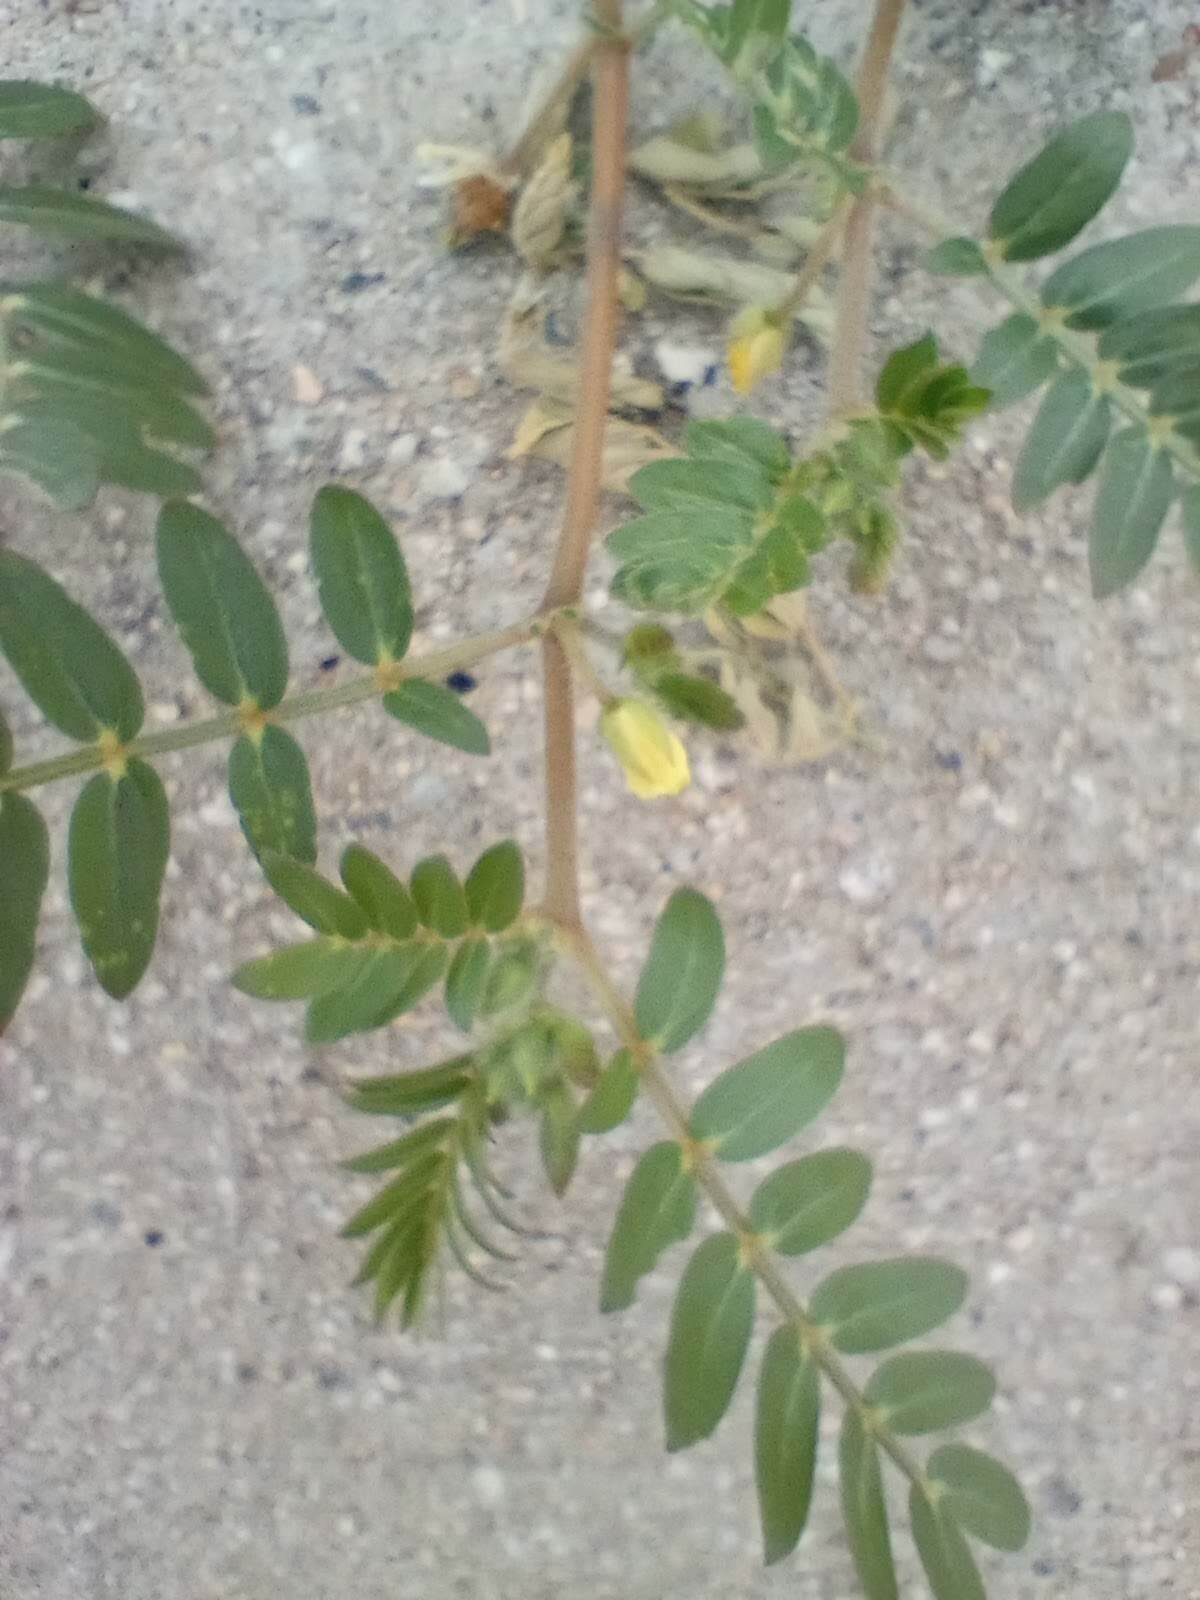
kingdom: Plantae
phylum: Tracheophyta
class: Magnoliopsida
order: Zygophyllales
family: Zygophyllaceae
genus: Tribulus
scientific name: Tribulus terrestris
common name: Puncturevine
